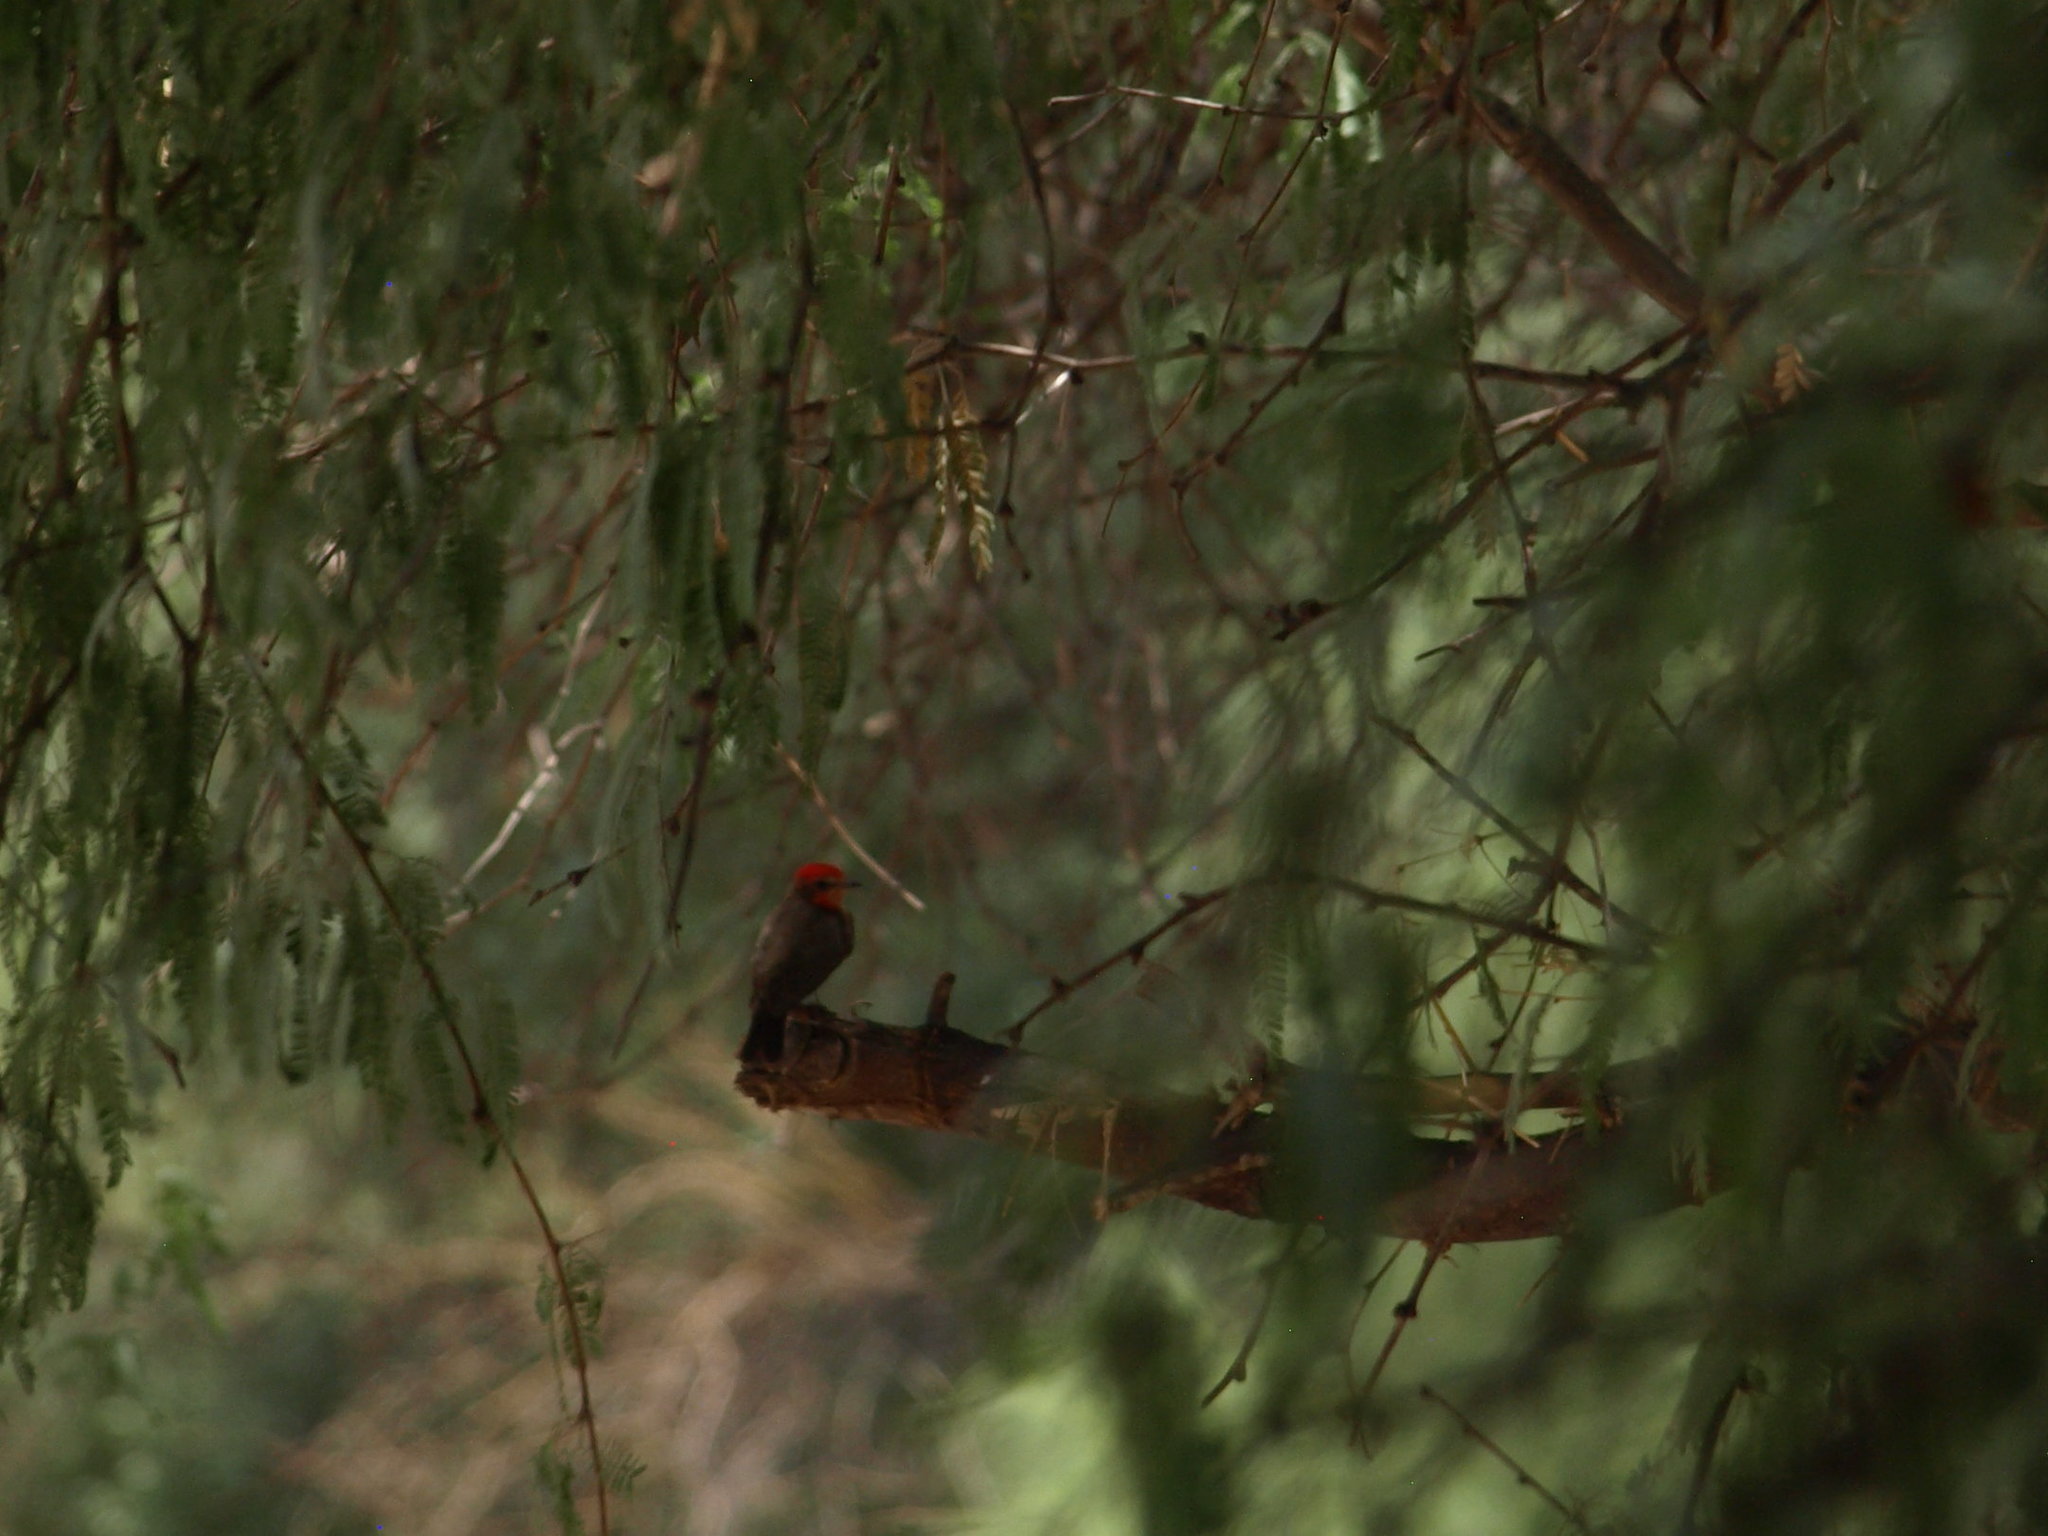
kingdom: Animalia
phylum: Chordata
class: Aves
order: Passeriformes
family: Tyrannidae
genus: Pyrocephalus
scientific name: Pyrocephalus rubinus
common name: Vermilion flycatcher
